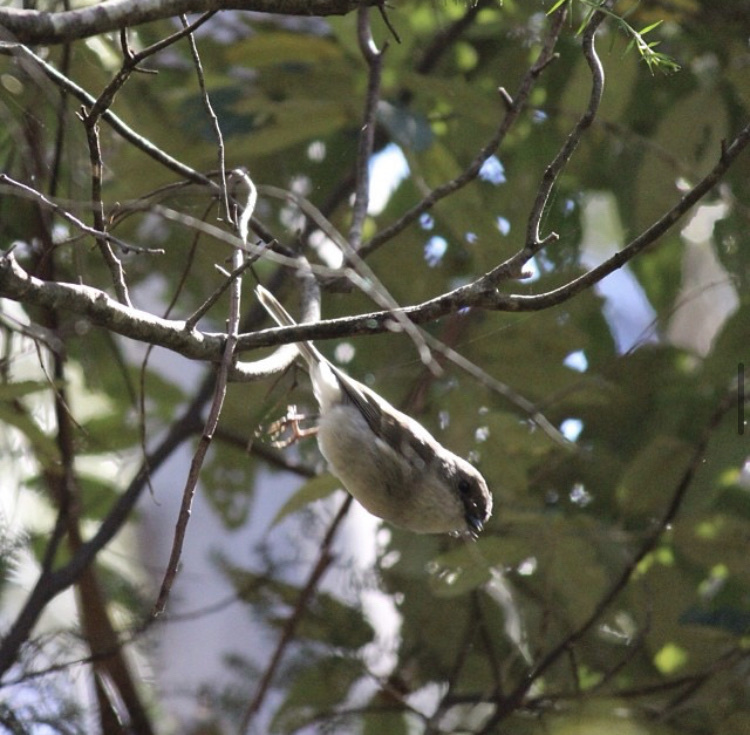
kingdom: Animalia
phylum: Chordata
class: Aves
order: Passeriformes
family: Pachycephalidae
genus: Pachycephala
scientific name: Pachycephala pectoralis
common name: Australian golden whistler
